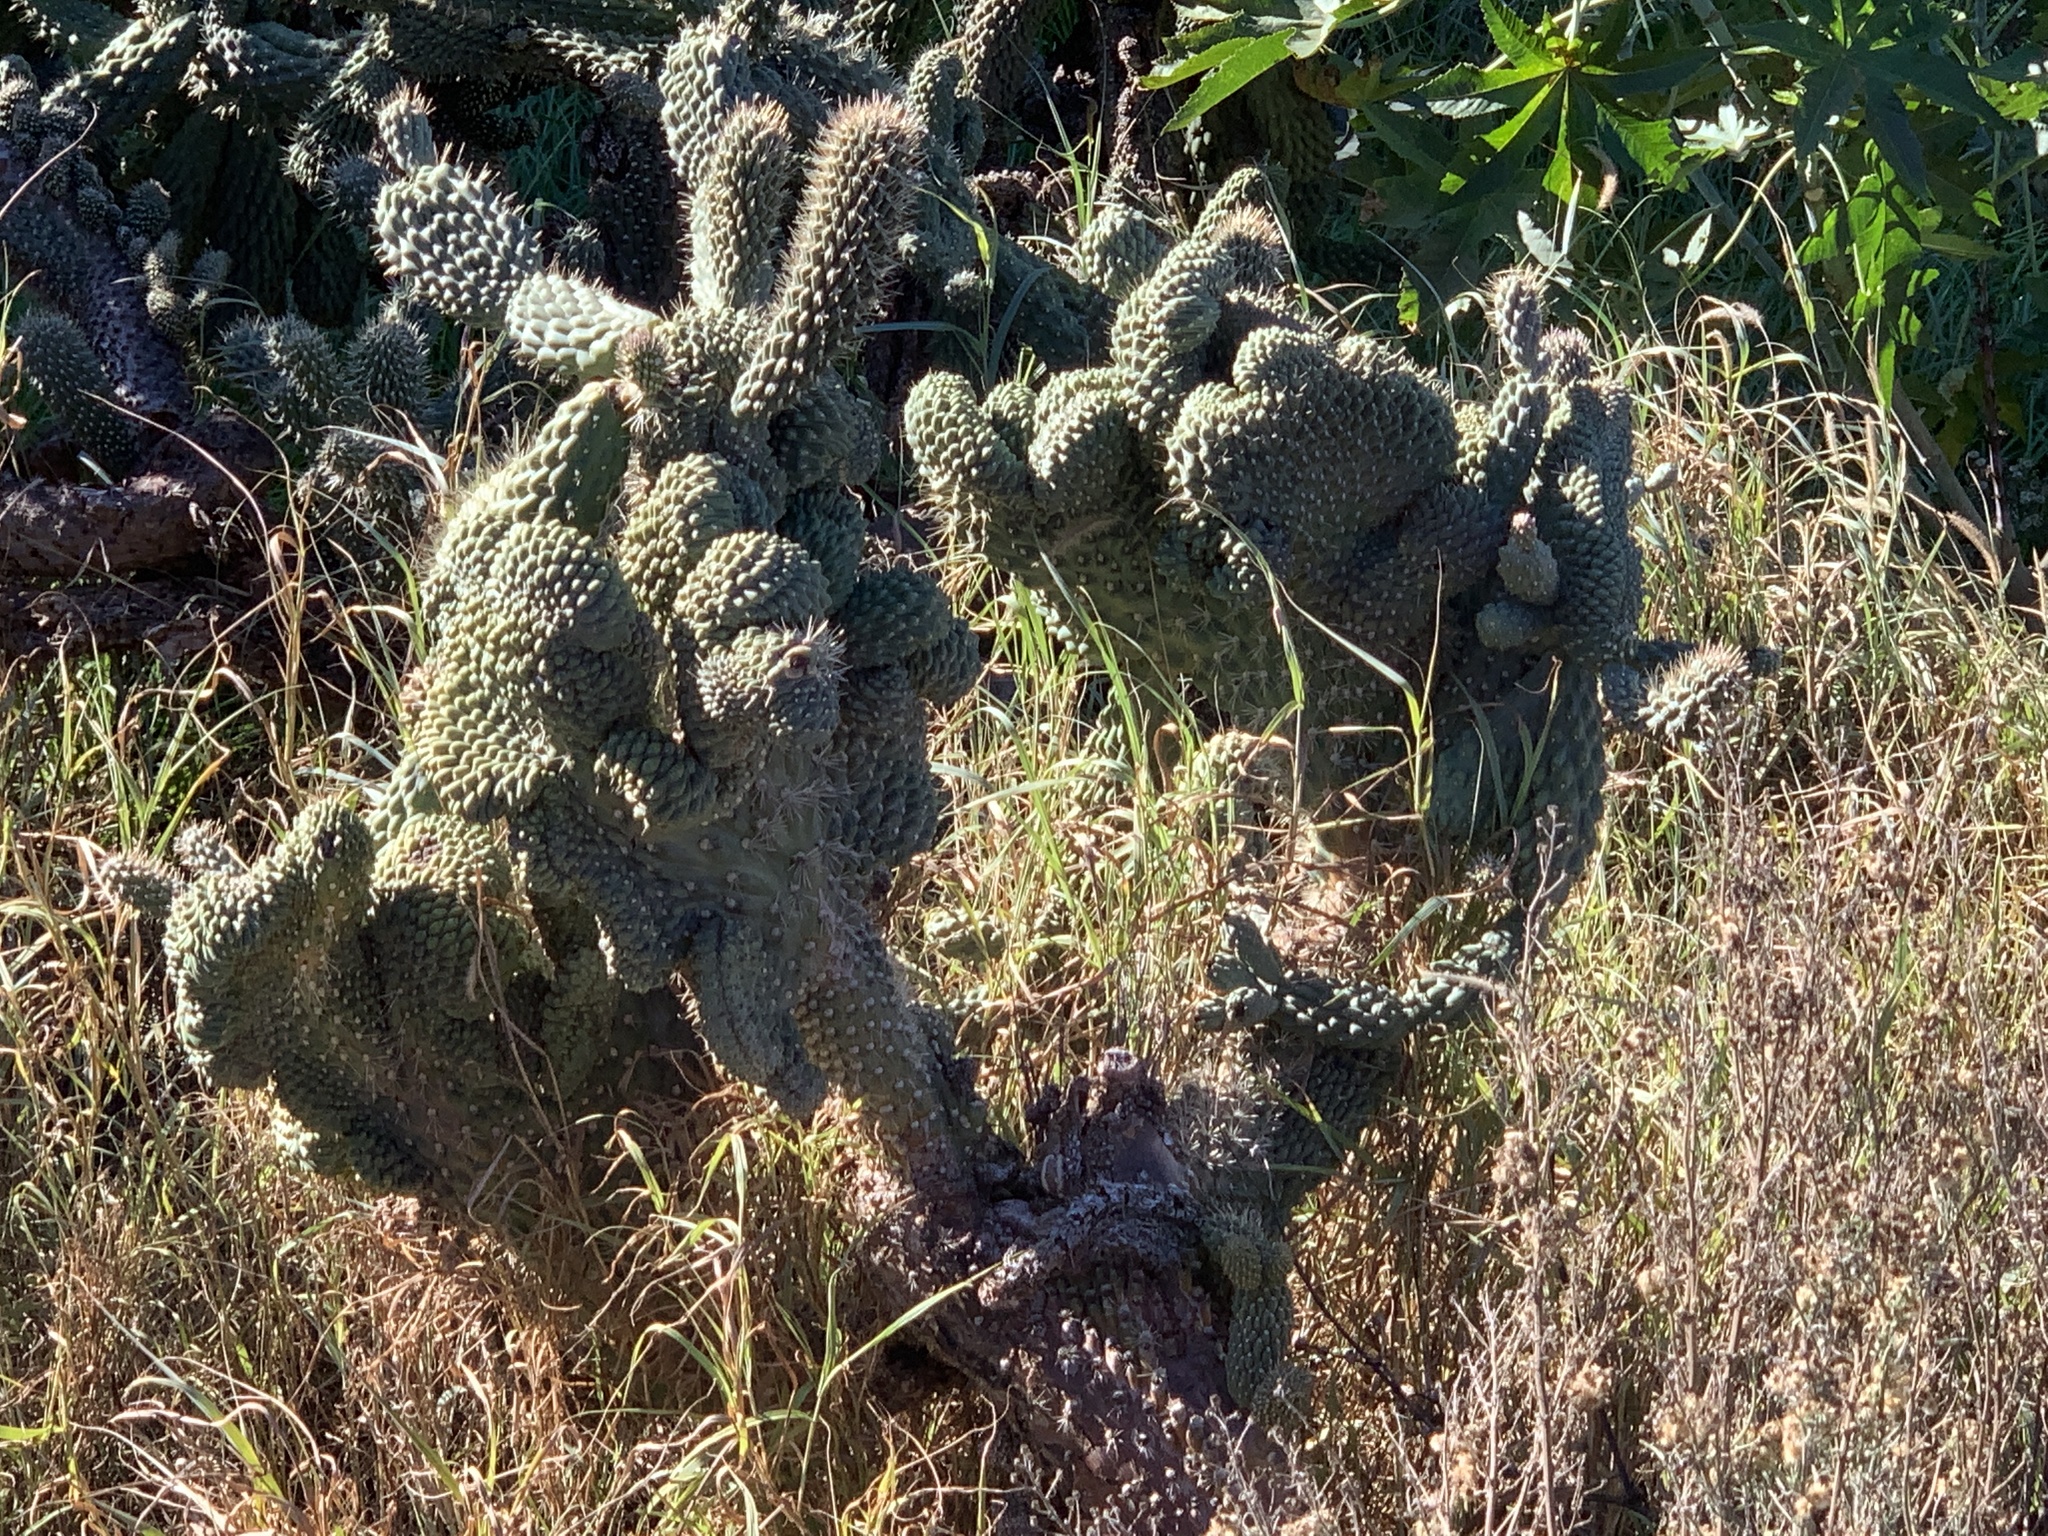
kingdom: Plantae
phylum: Tracheophyta
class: Magnoliopsida
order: Caryophyllales
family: Cactaceae
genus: Cylindropuntia
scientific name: Cylindropuntia fulgida
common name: Jumping cholla
